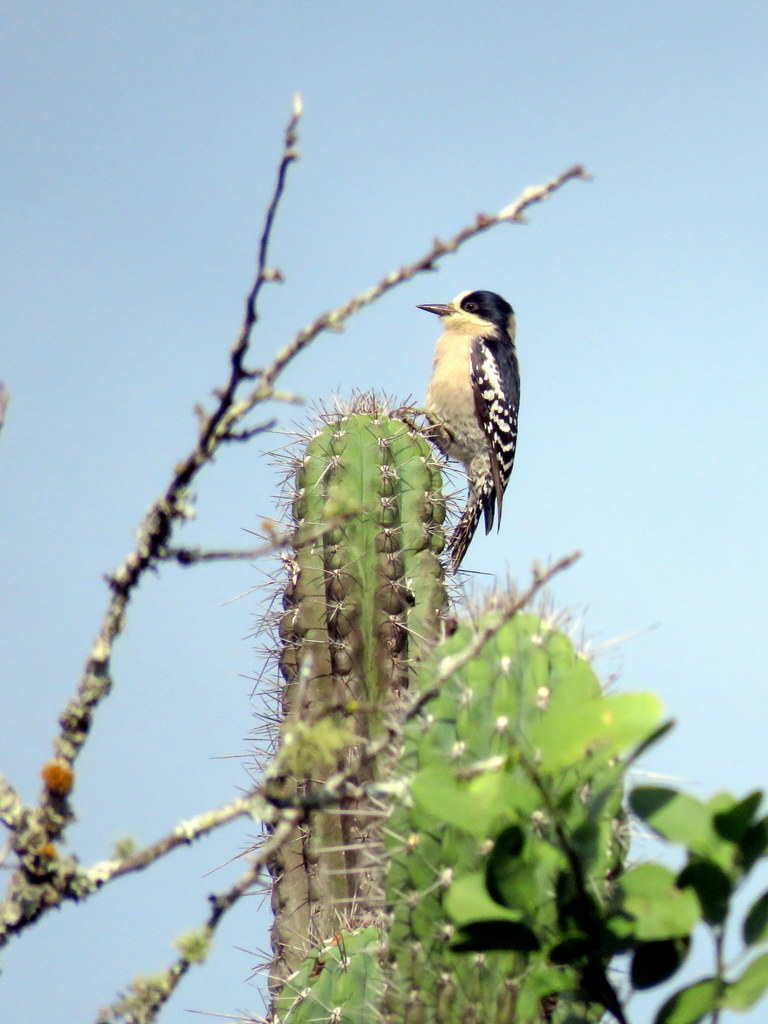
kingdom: Animalia
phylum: Chordata
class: Aves
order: Piciformes
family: Picidae
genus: Melanerpes
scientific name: Melanerpes cactorum
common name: White-fronted woodpecker
